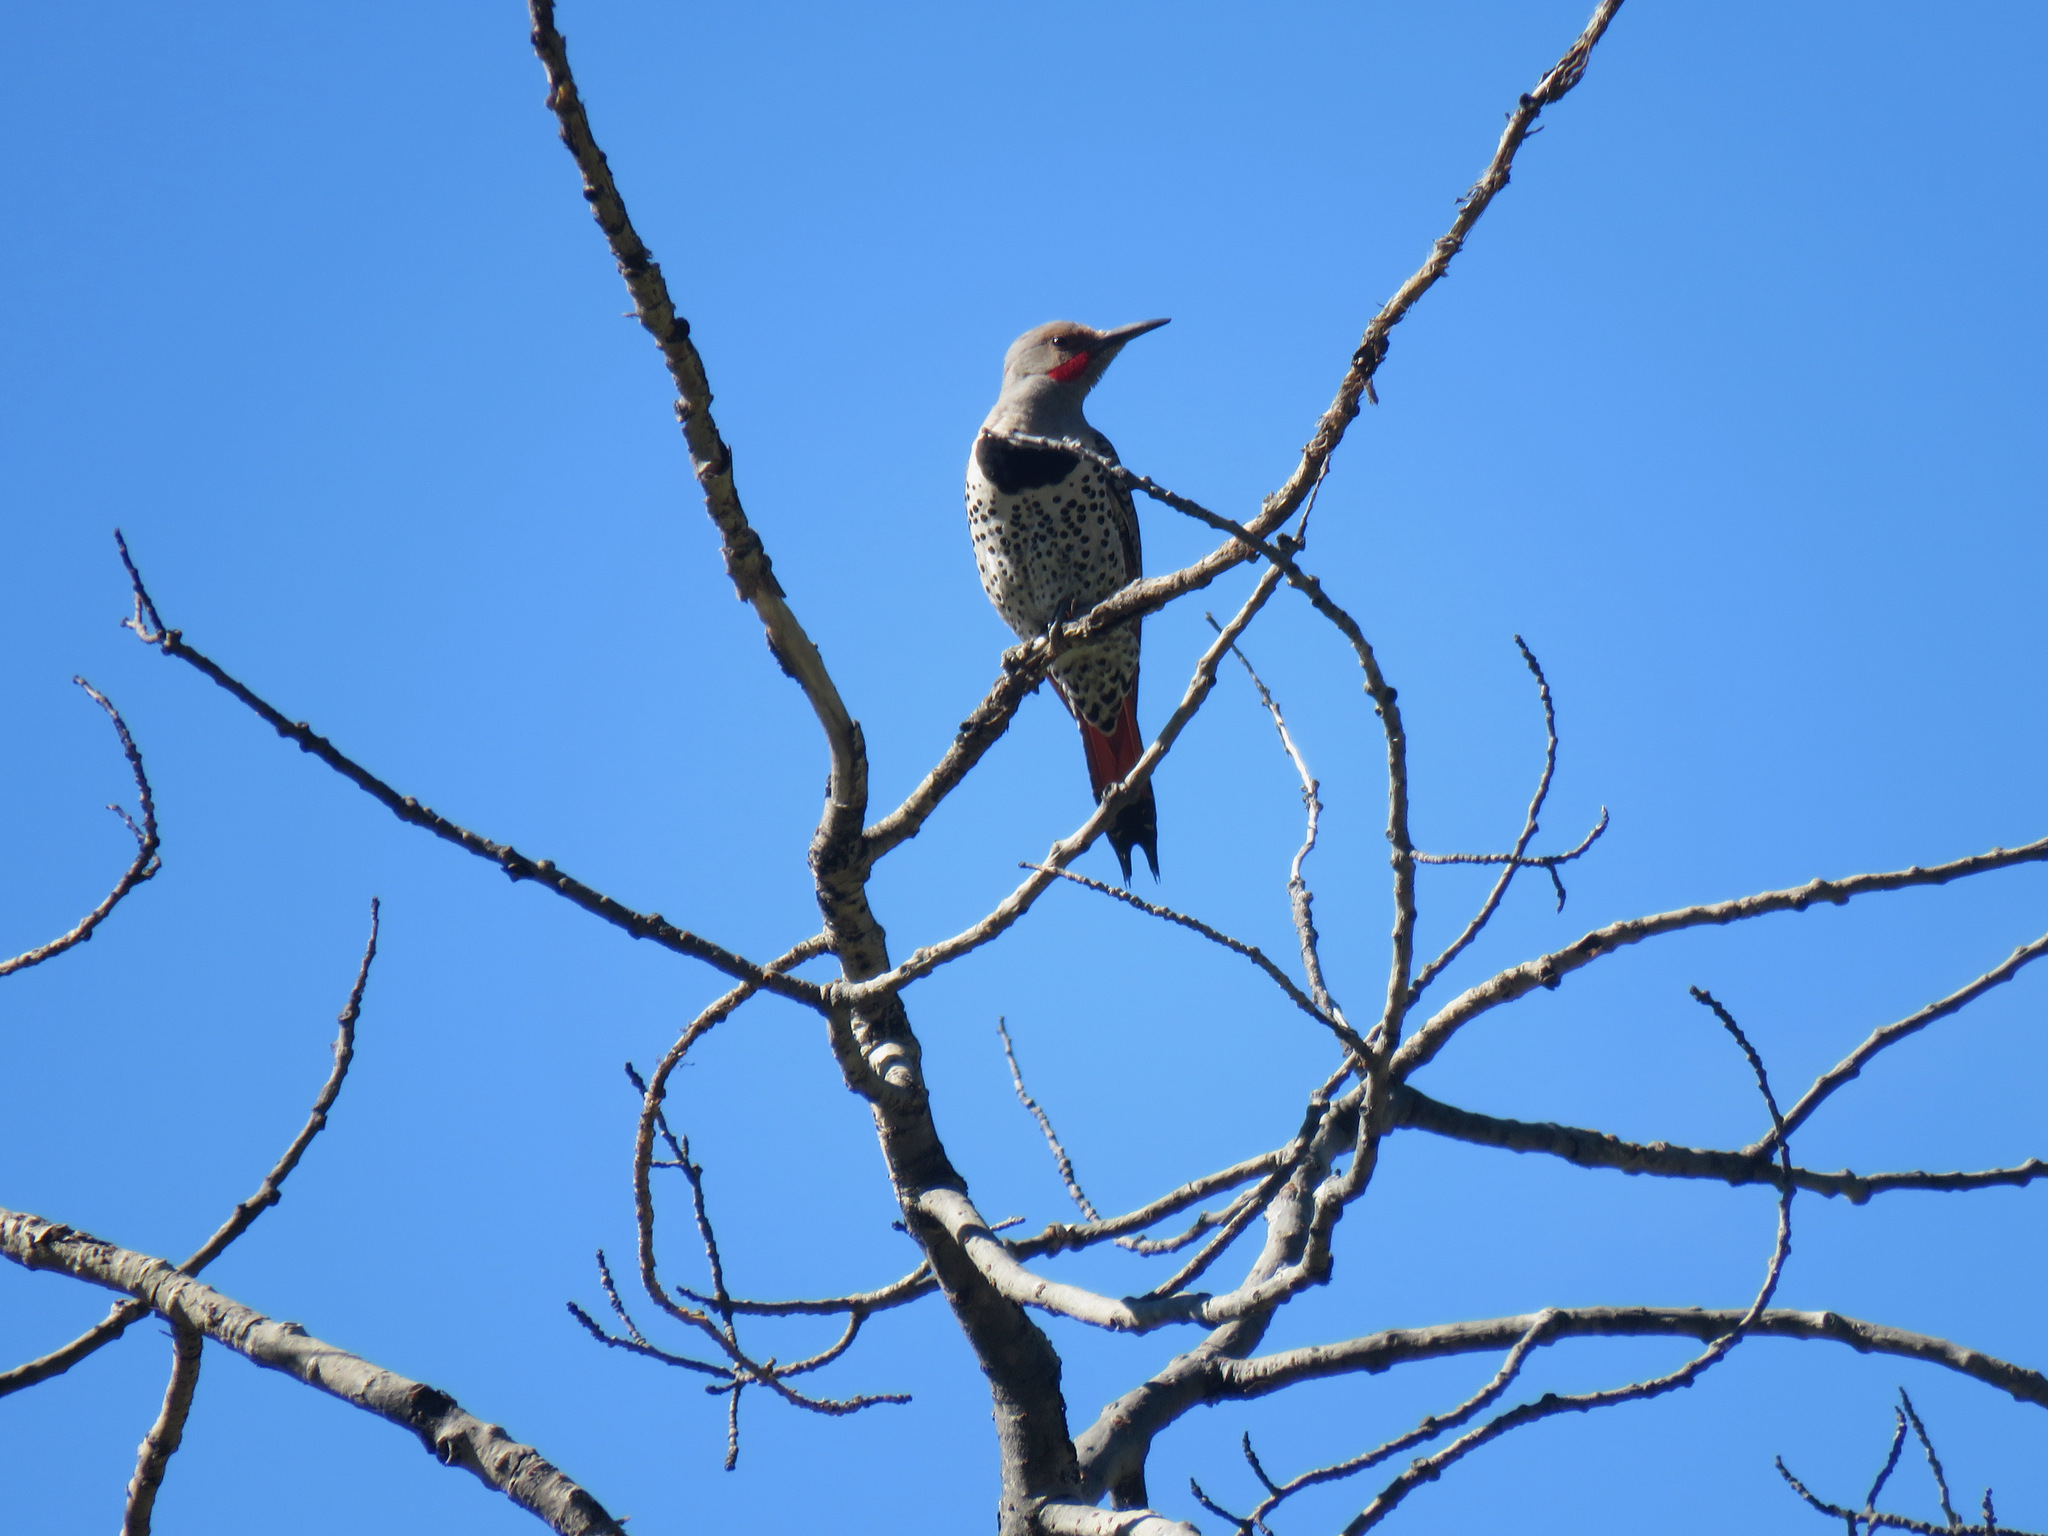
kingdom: Animalia
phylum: Chordata
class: Aves
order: Piciformes
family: Picidae
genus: Colaptes
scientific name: Colaptes auratus
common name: Northern flicker
